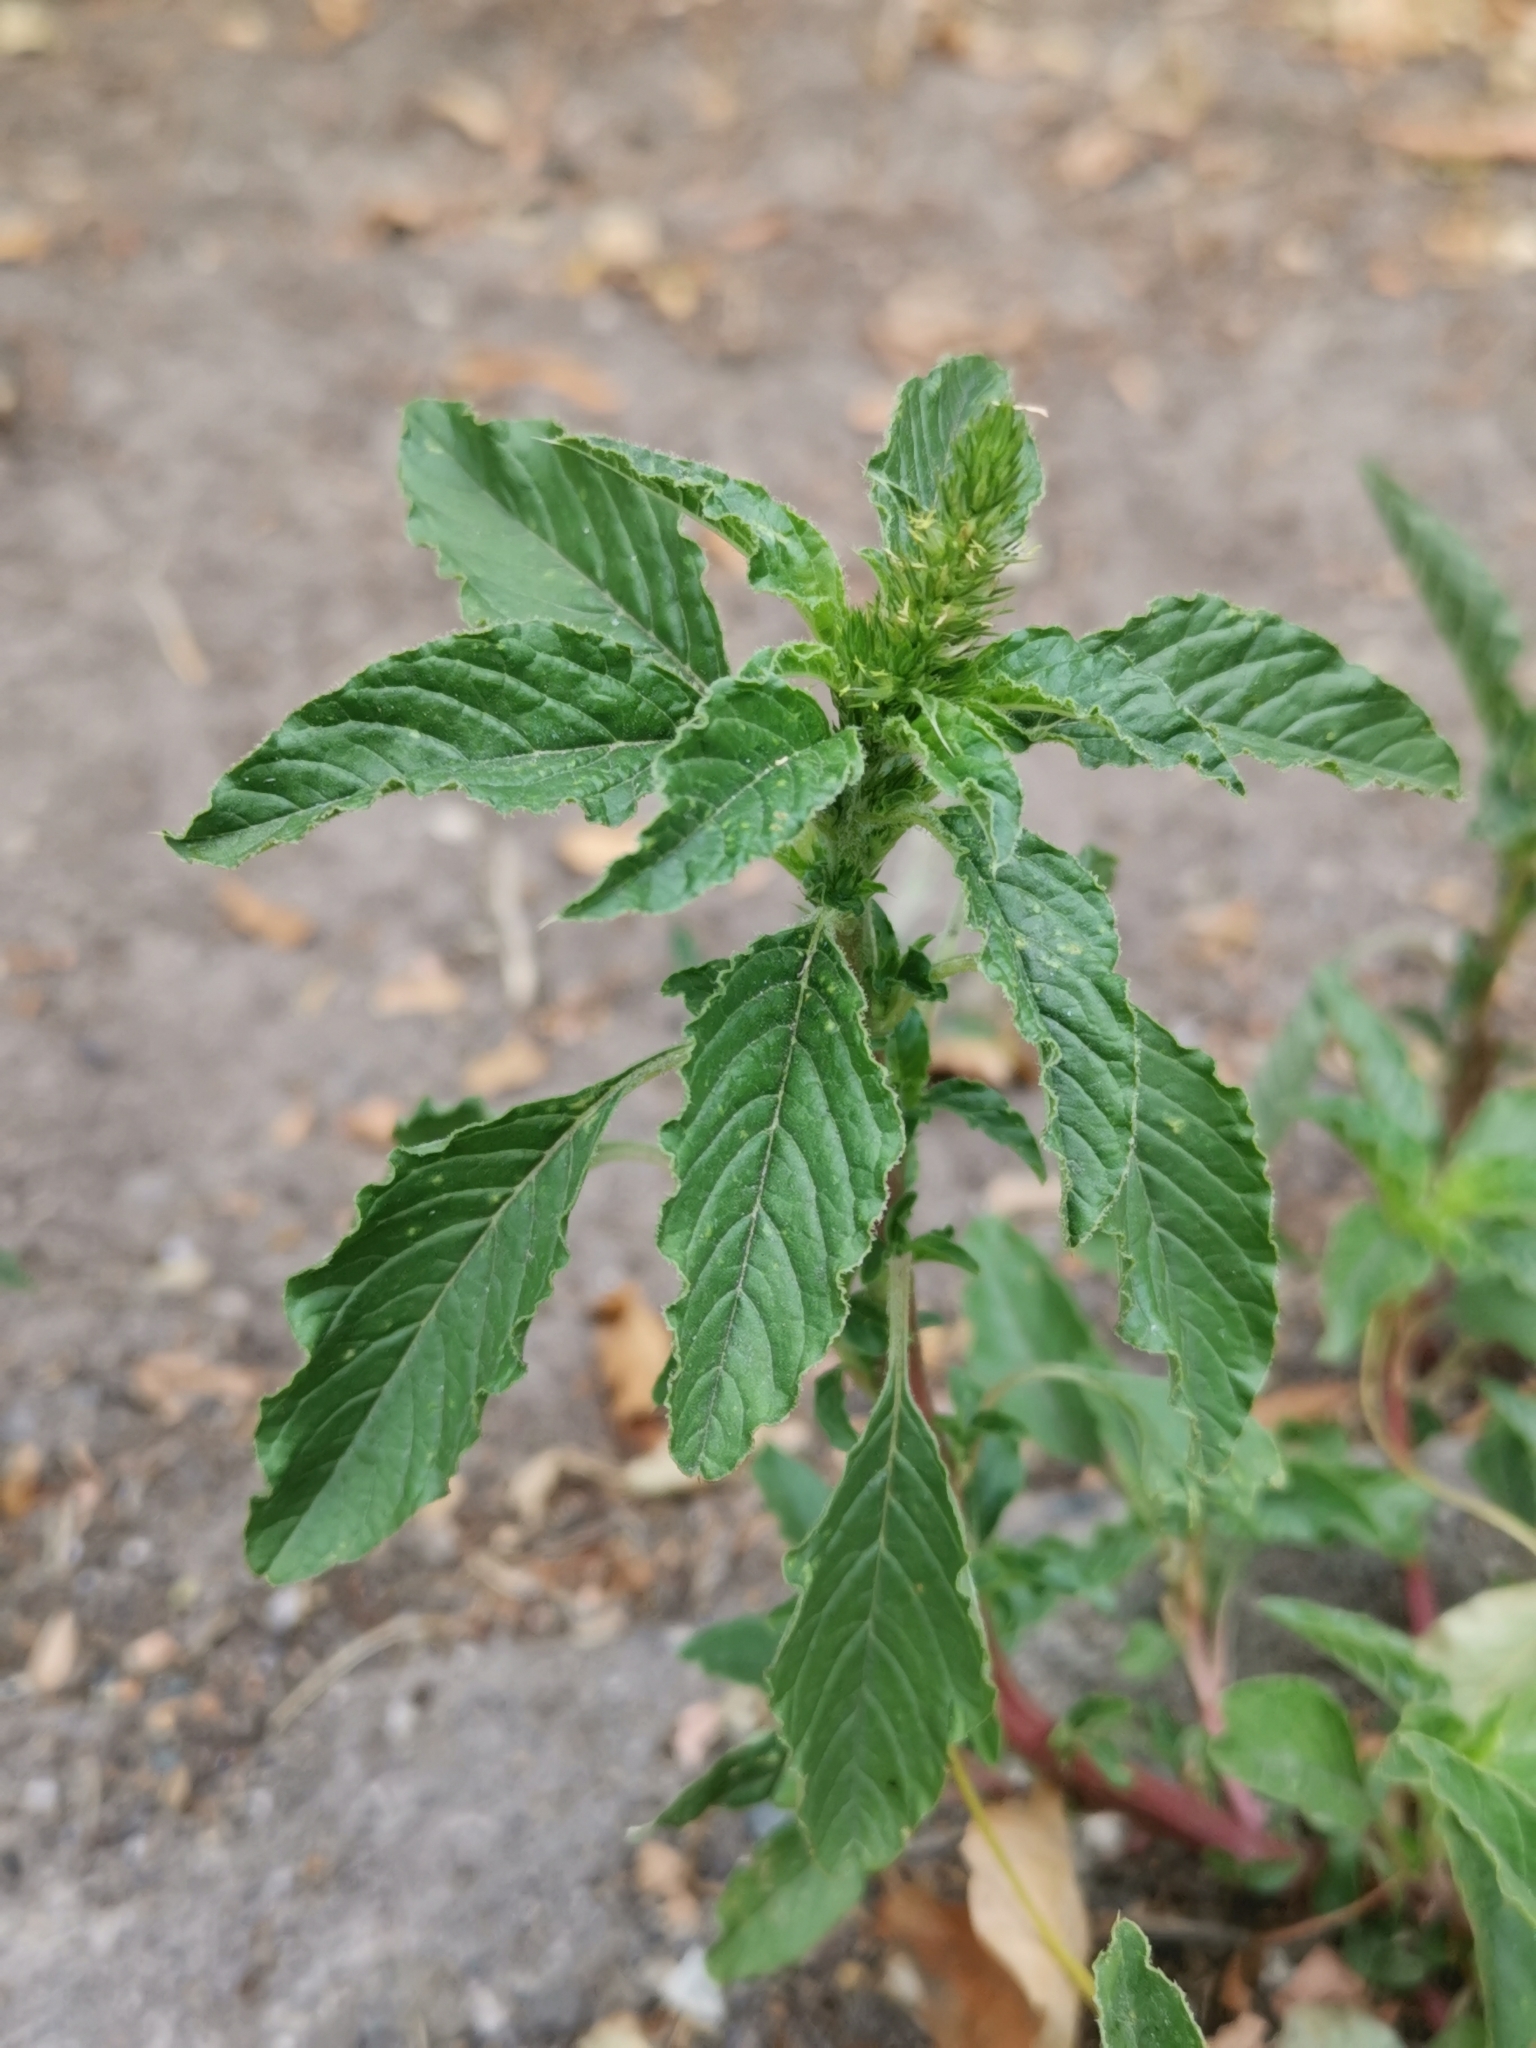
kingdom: Plantae
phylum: Tracheophyta
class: Magnoliopsida
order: Caryophyllales
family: Amaranthaceae
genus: Amaranthus
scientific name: Amaranthus retroflexus
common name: Redroot amaranth
